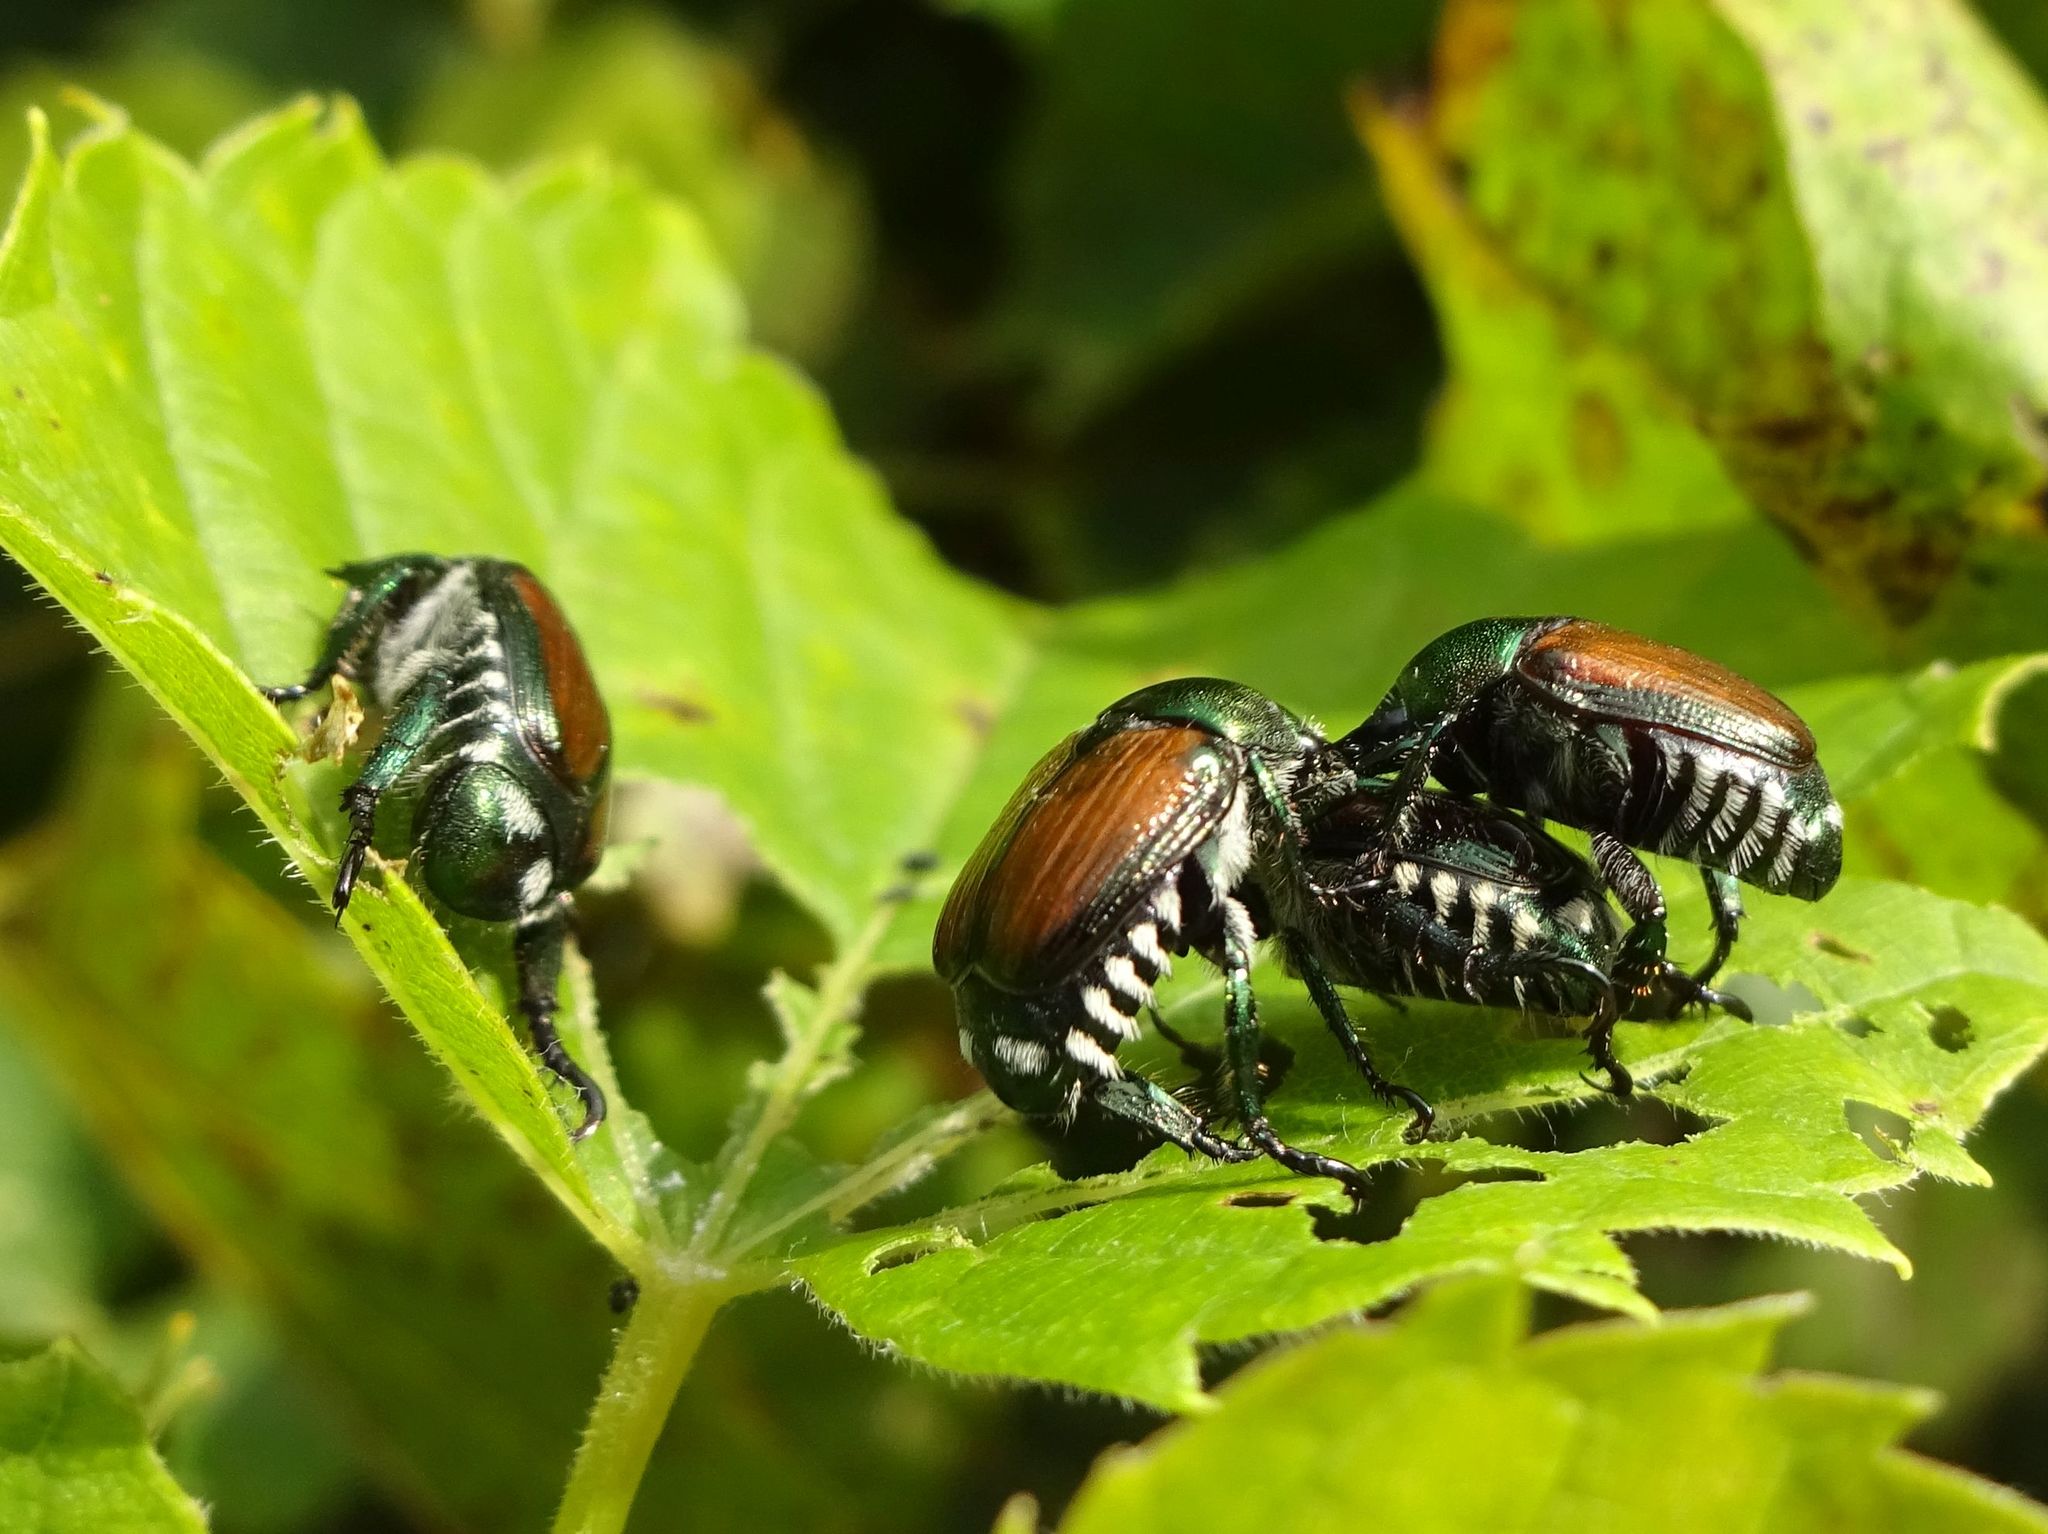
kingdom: Animalia
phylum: Arthropoda
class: Insecta
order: Coleoptera
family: Scarabaeidae
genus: Popillia
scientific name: Popillia japonica
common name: Japanese beetle
